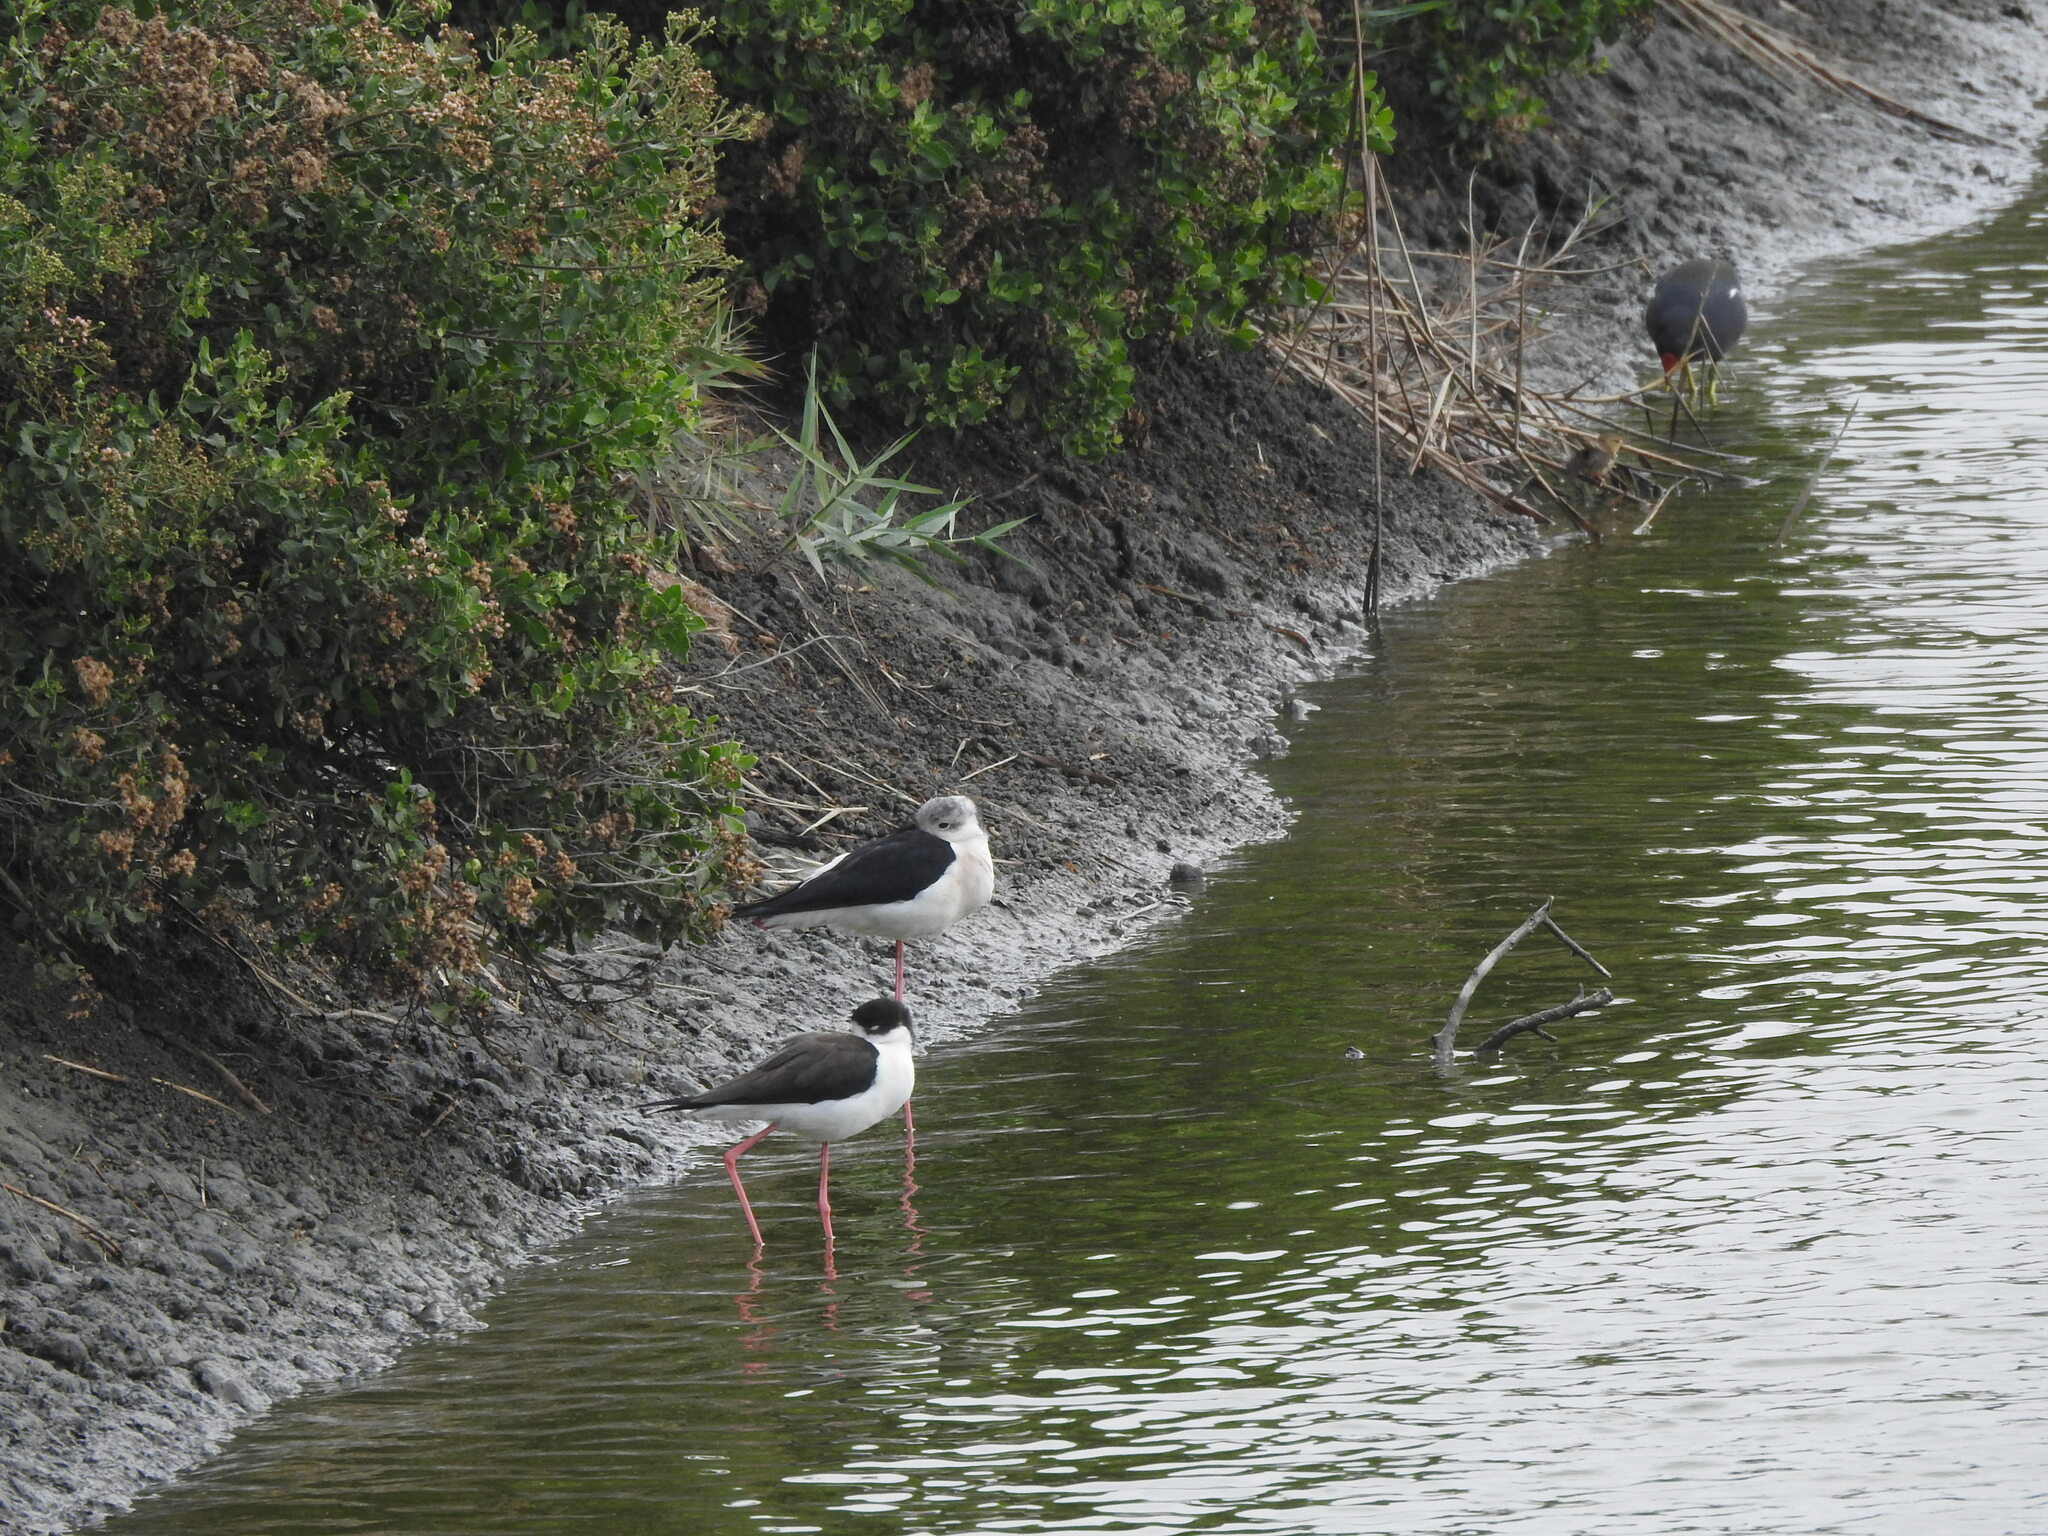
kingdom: Animalia
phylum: Chordata
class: Aves
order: Charadriiformes
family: Recurvirostridae
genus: Himantopus
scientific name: Himantopus himantopus
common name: Black-winged stilt
